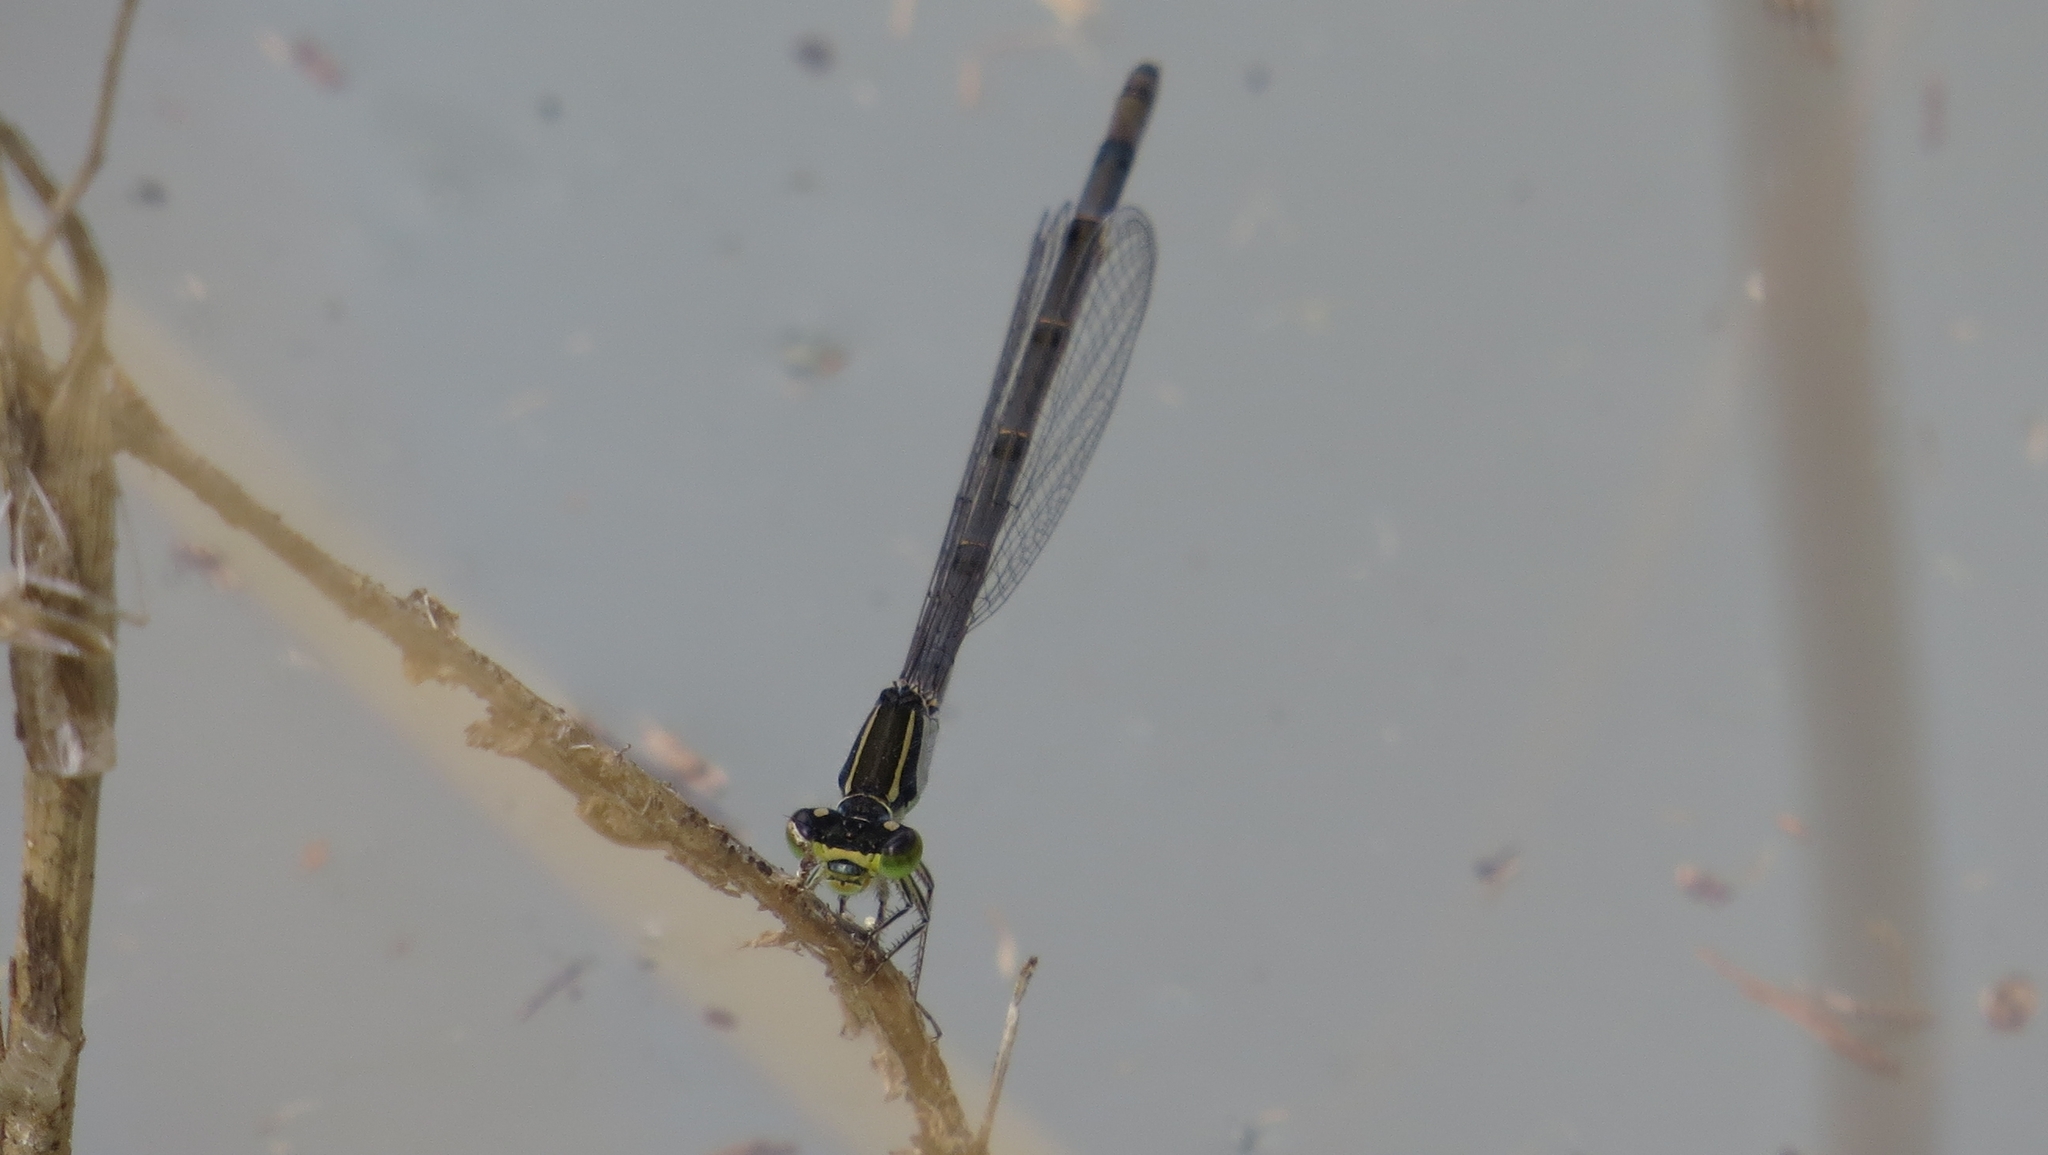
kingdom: Animalia
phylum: Arthropoda
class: Insecta
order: Odonata
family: Coenagrionidae
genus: Ischnura
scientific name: Ischnura heterosticta
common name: Common bluetail
